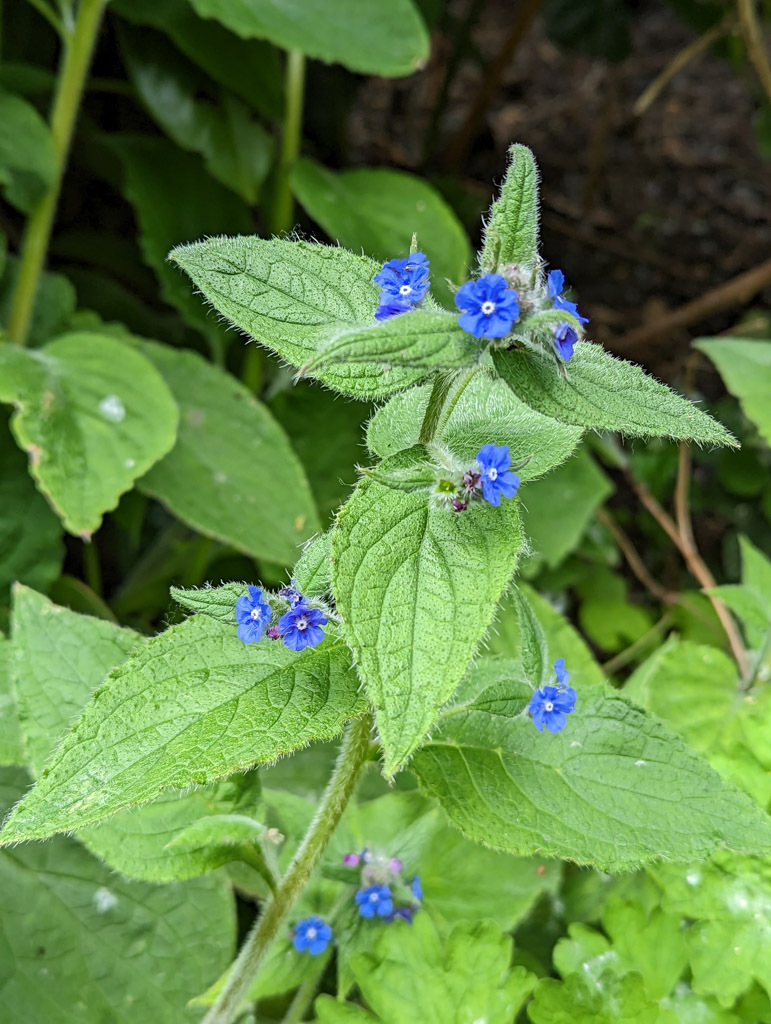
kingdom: Plantae
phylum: Tracheophyta
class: Magnoliopsida
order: Boraginales
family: Boraginaceae
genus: Pentaglottis
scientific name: Pentaglottis sempervirens
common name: Green alkanet
